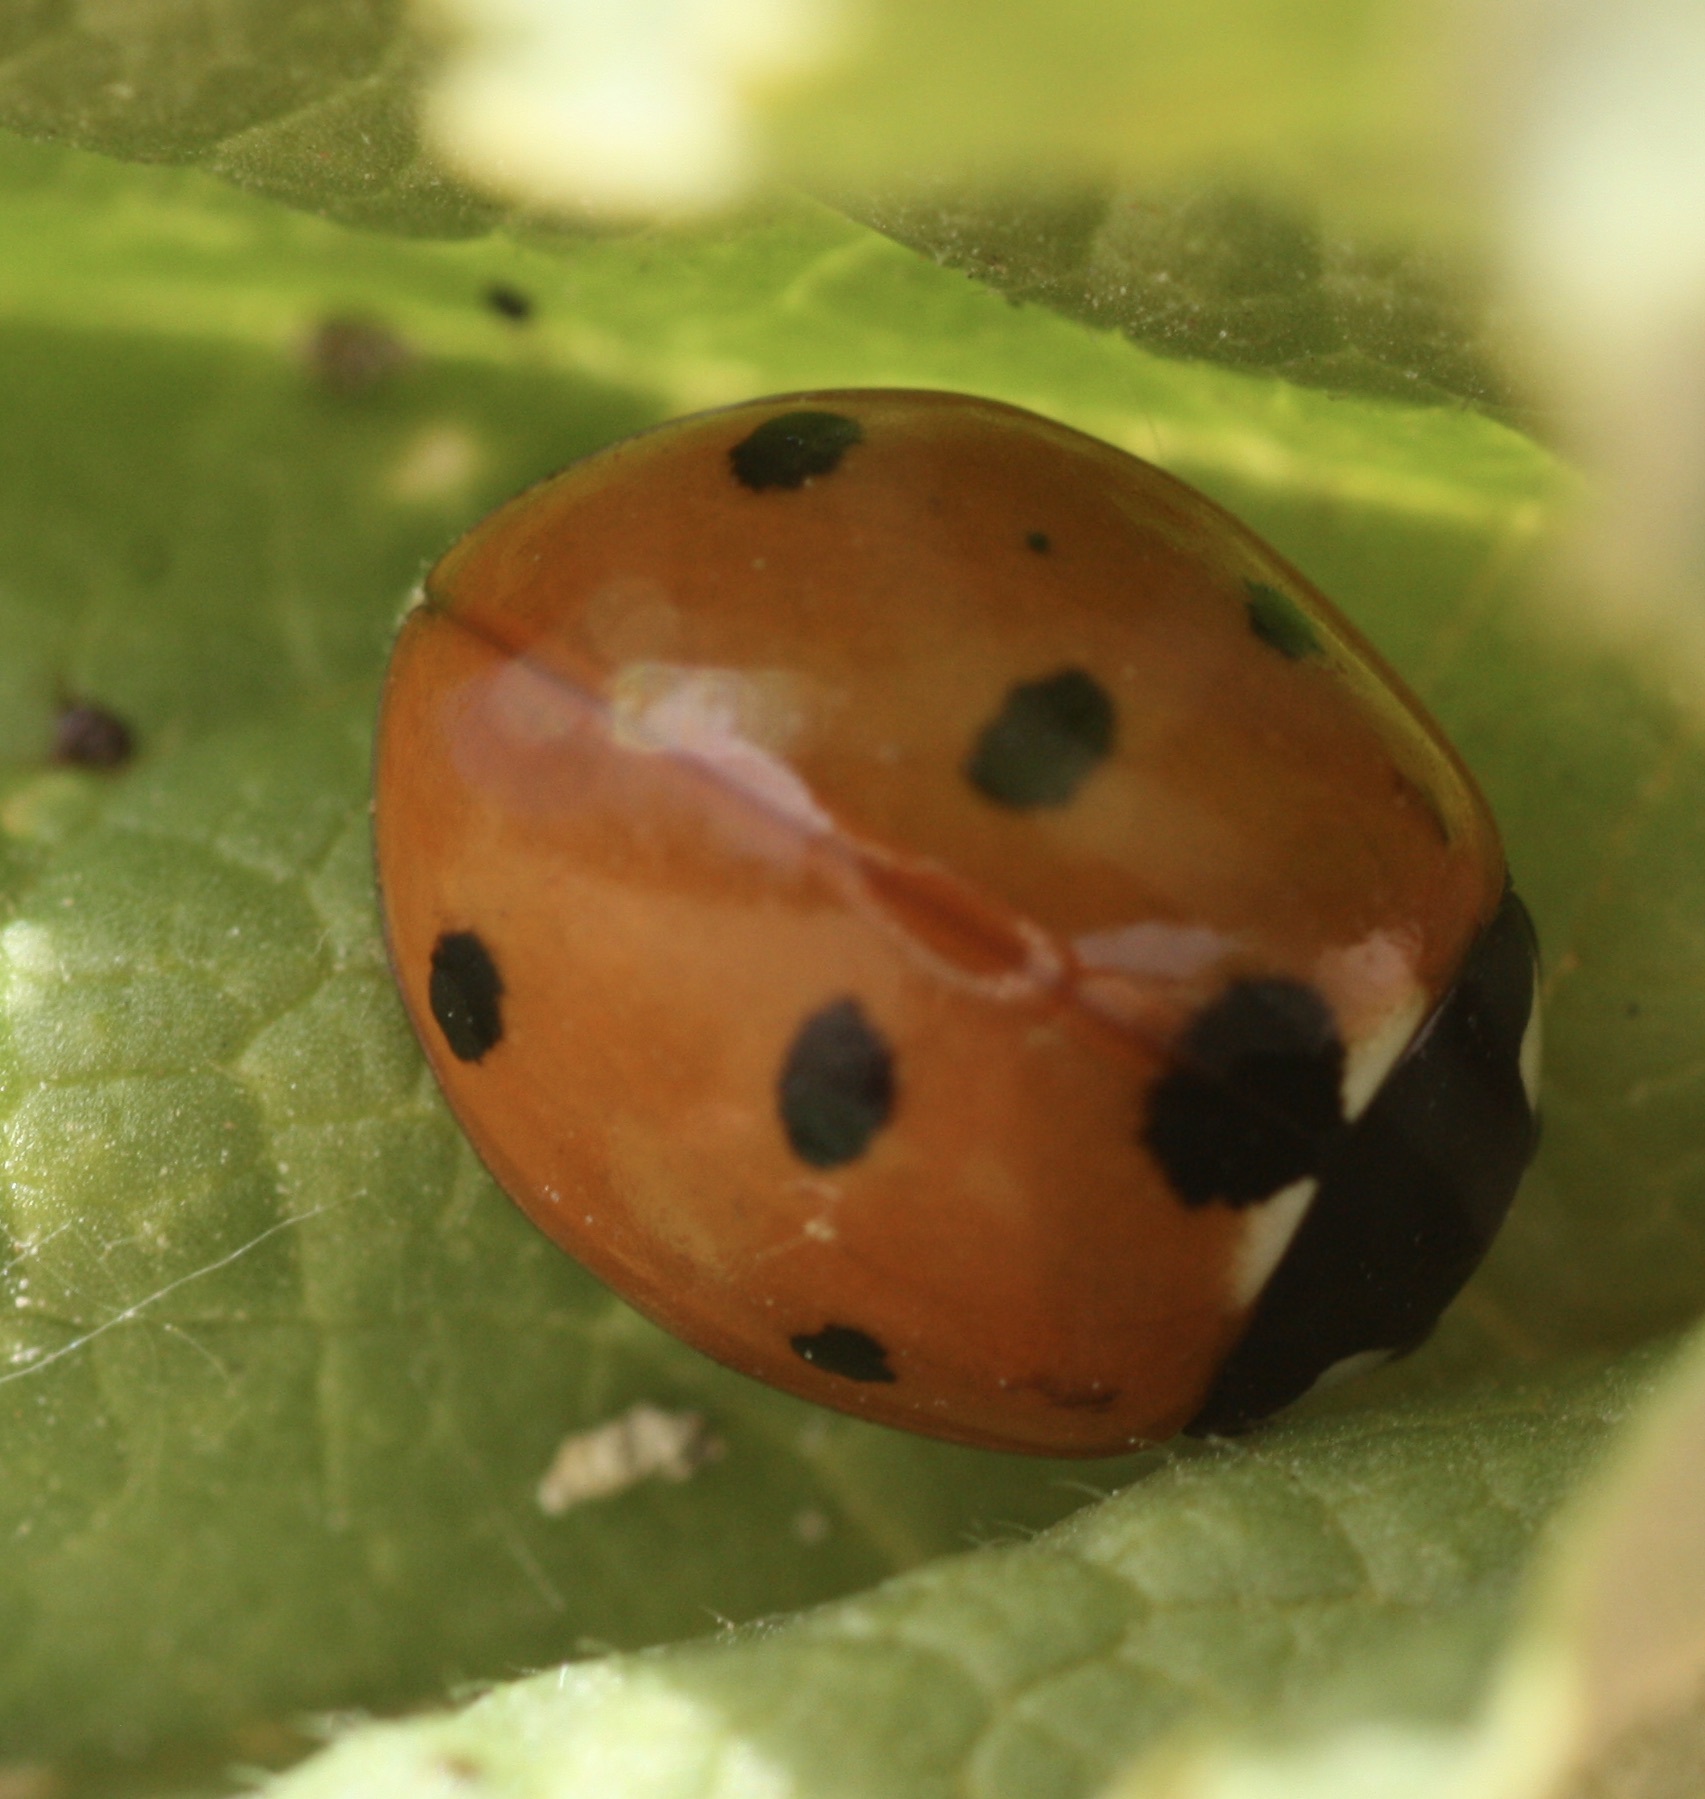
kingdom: Animalia
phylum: Arthropoda
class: Insecta
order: Coleoptera
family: Coccinellidae
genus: Coccinella
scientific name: Coccinella septempunctata
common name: Sevenspotted lady beetle
